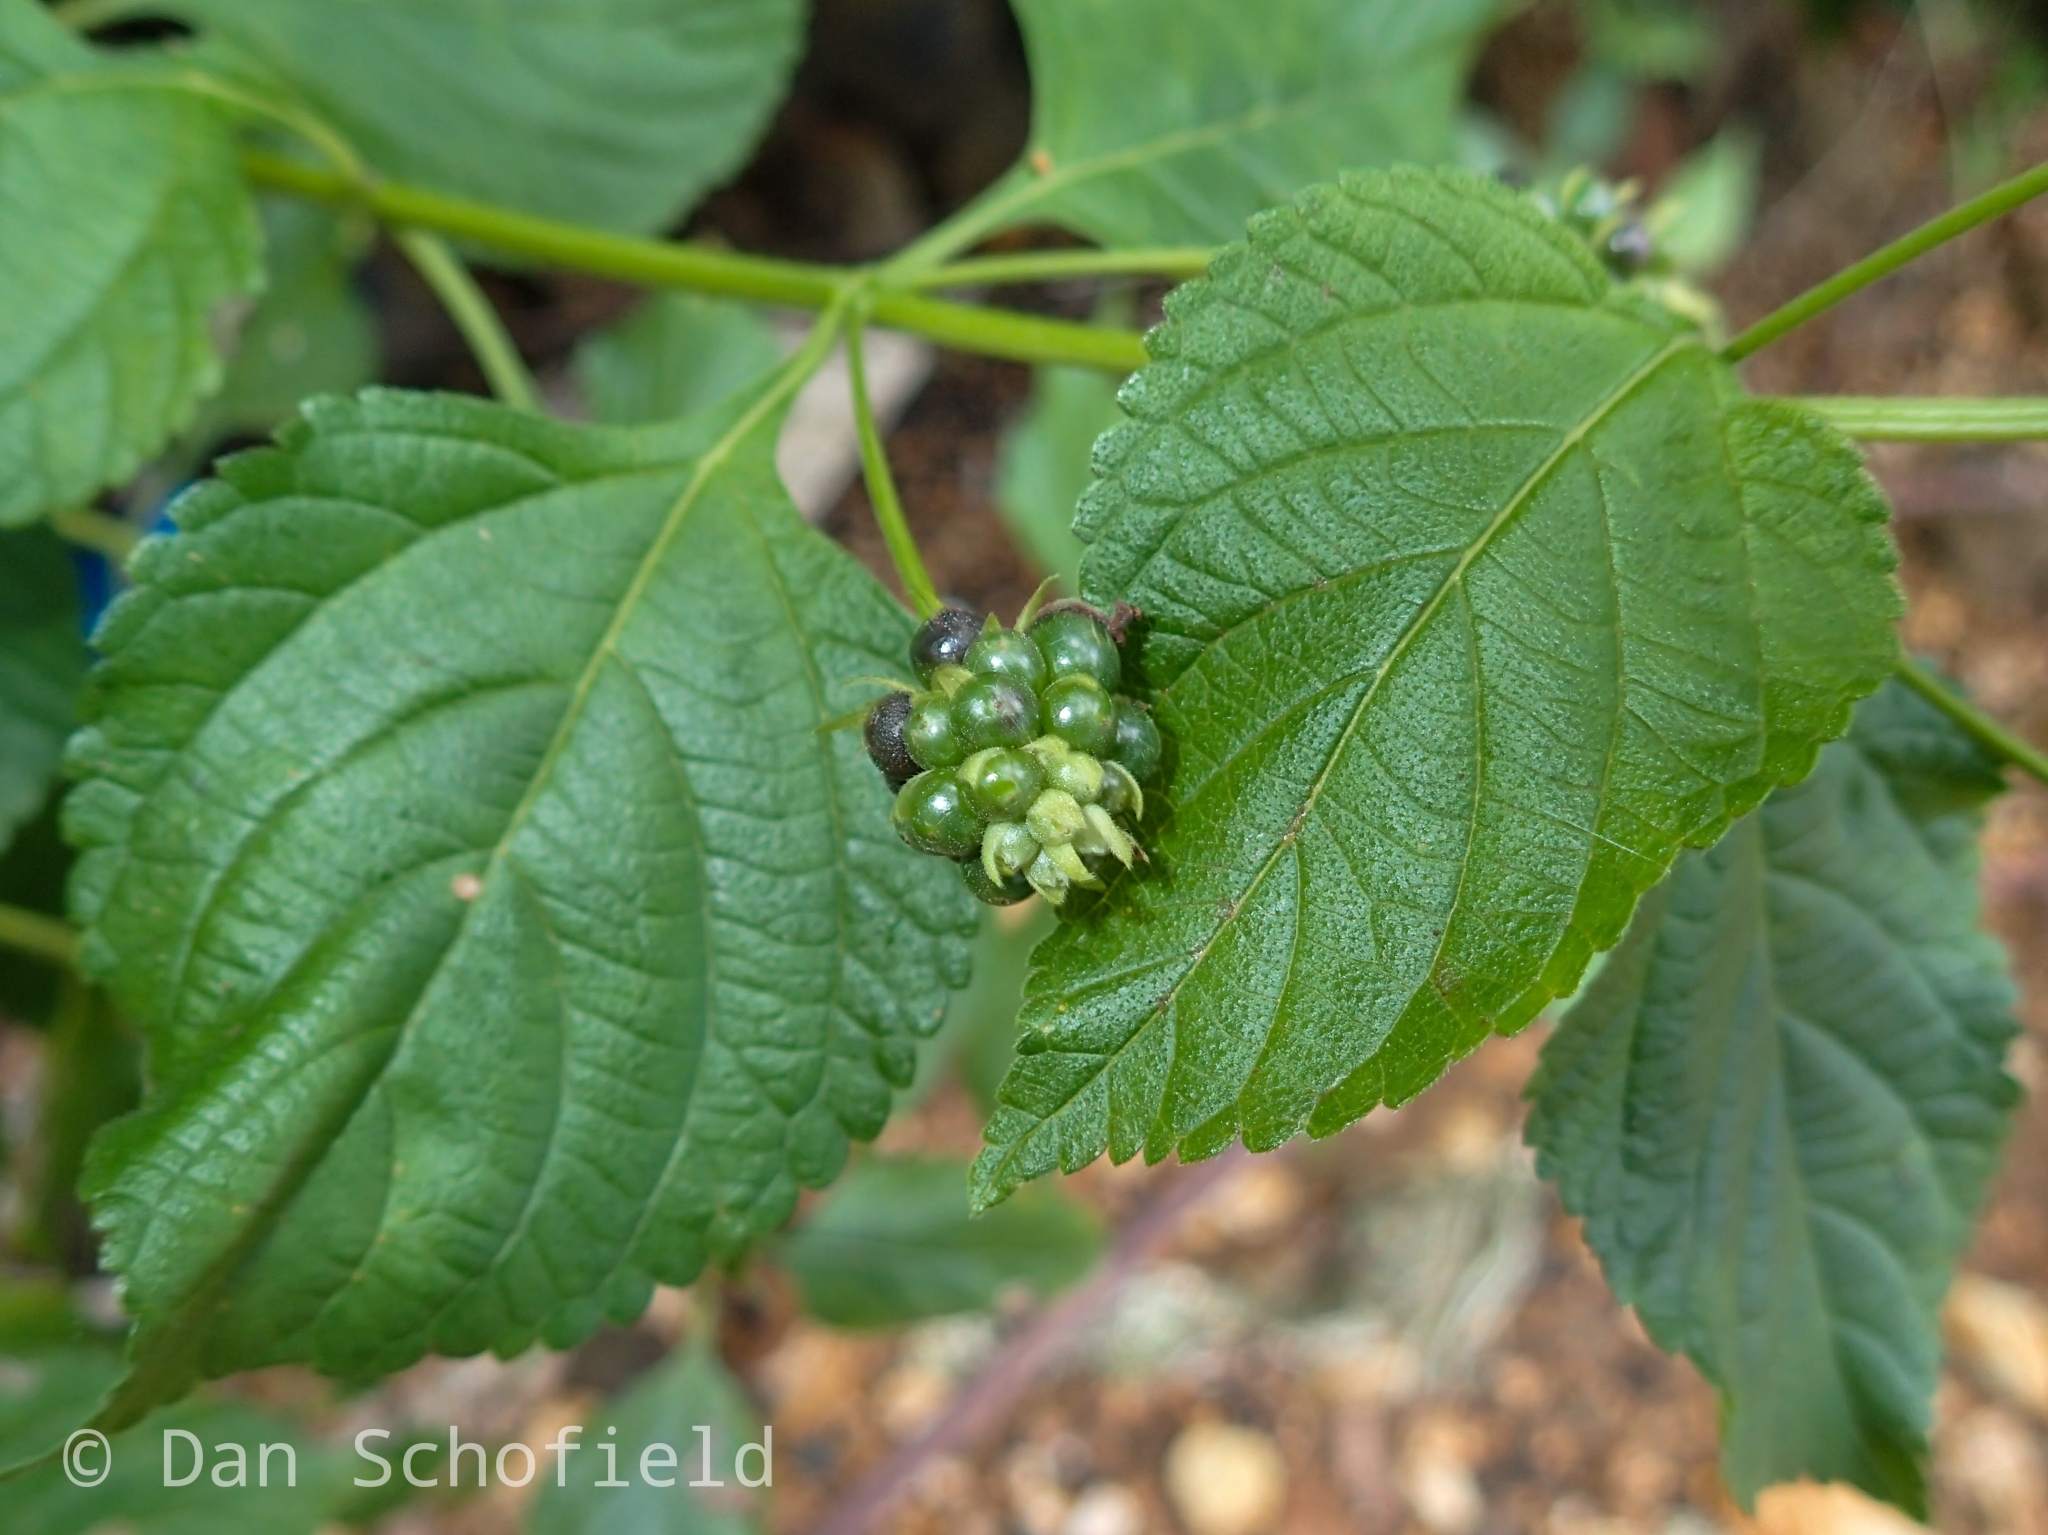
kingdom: Plantae
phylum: Tracheophyta
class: Magnoliopsida
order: Lamiales
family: Verbenaceae
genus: Lantana
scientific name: Lantana camara
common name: Lantana
